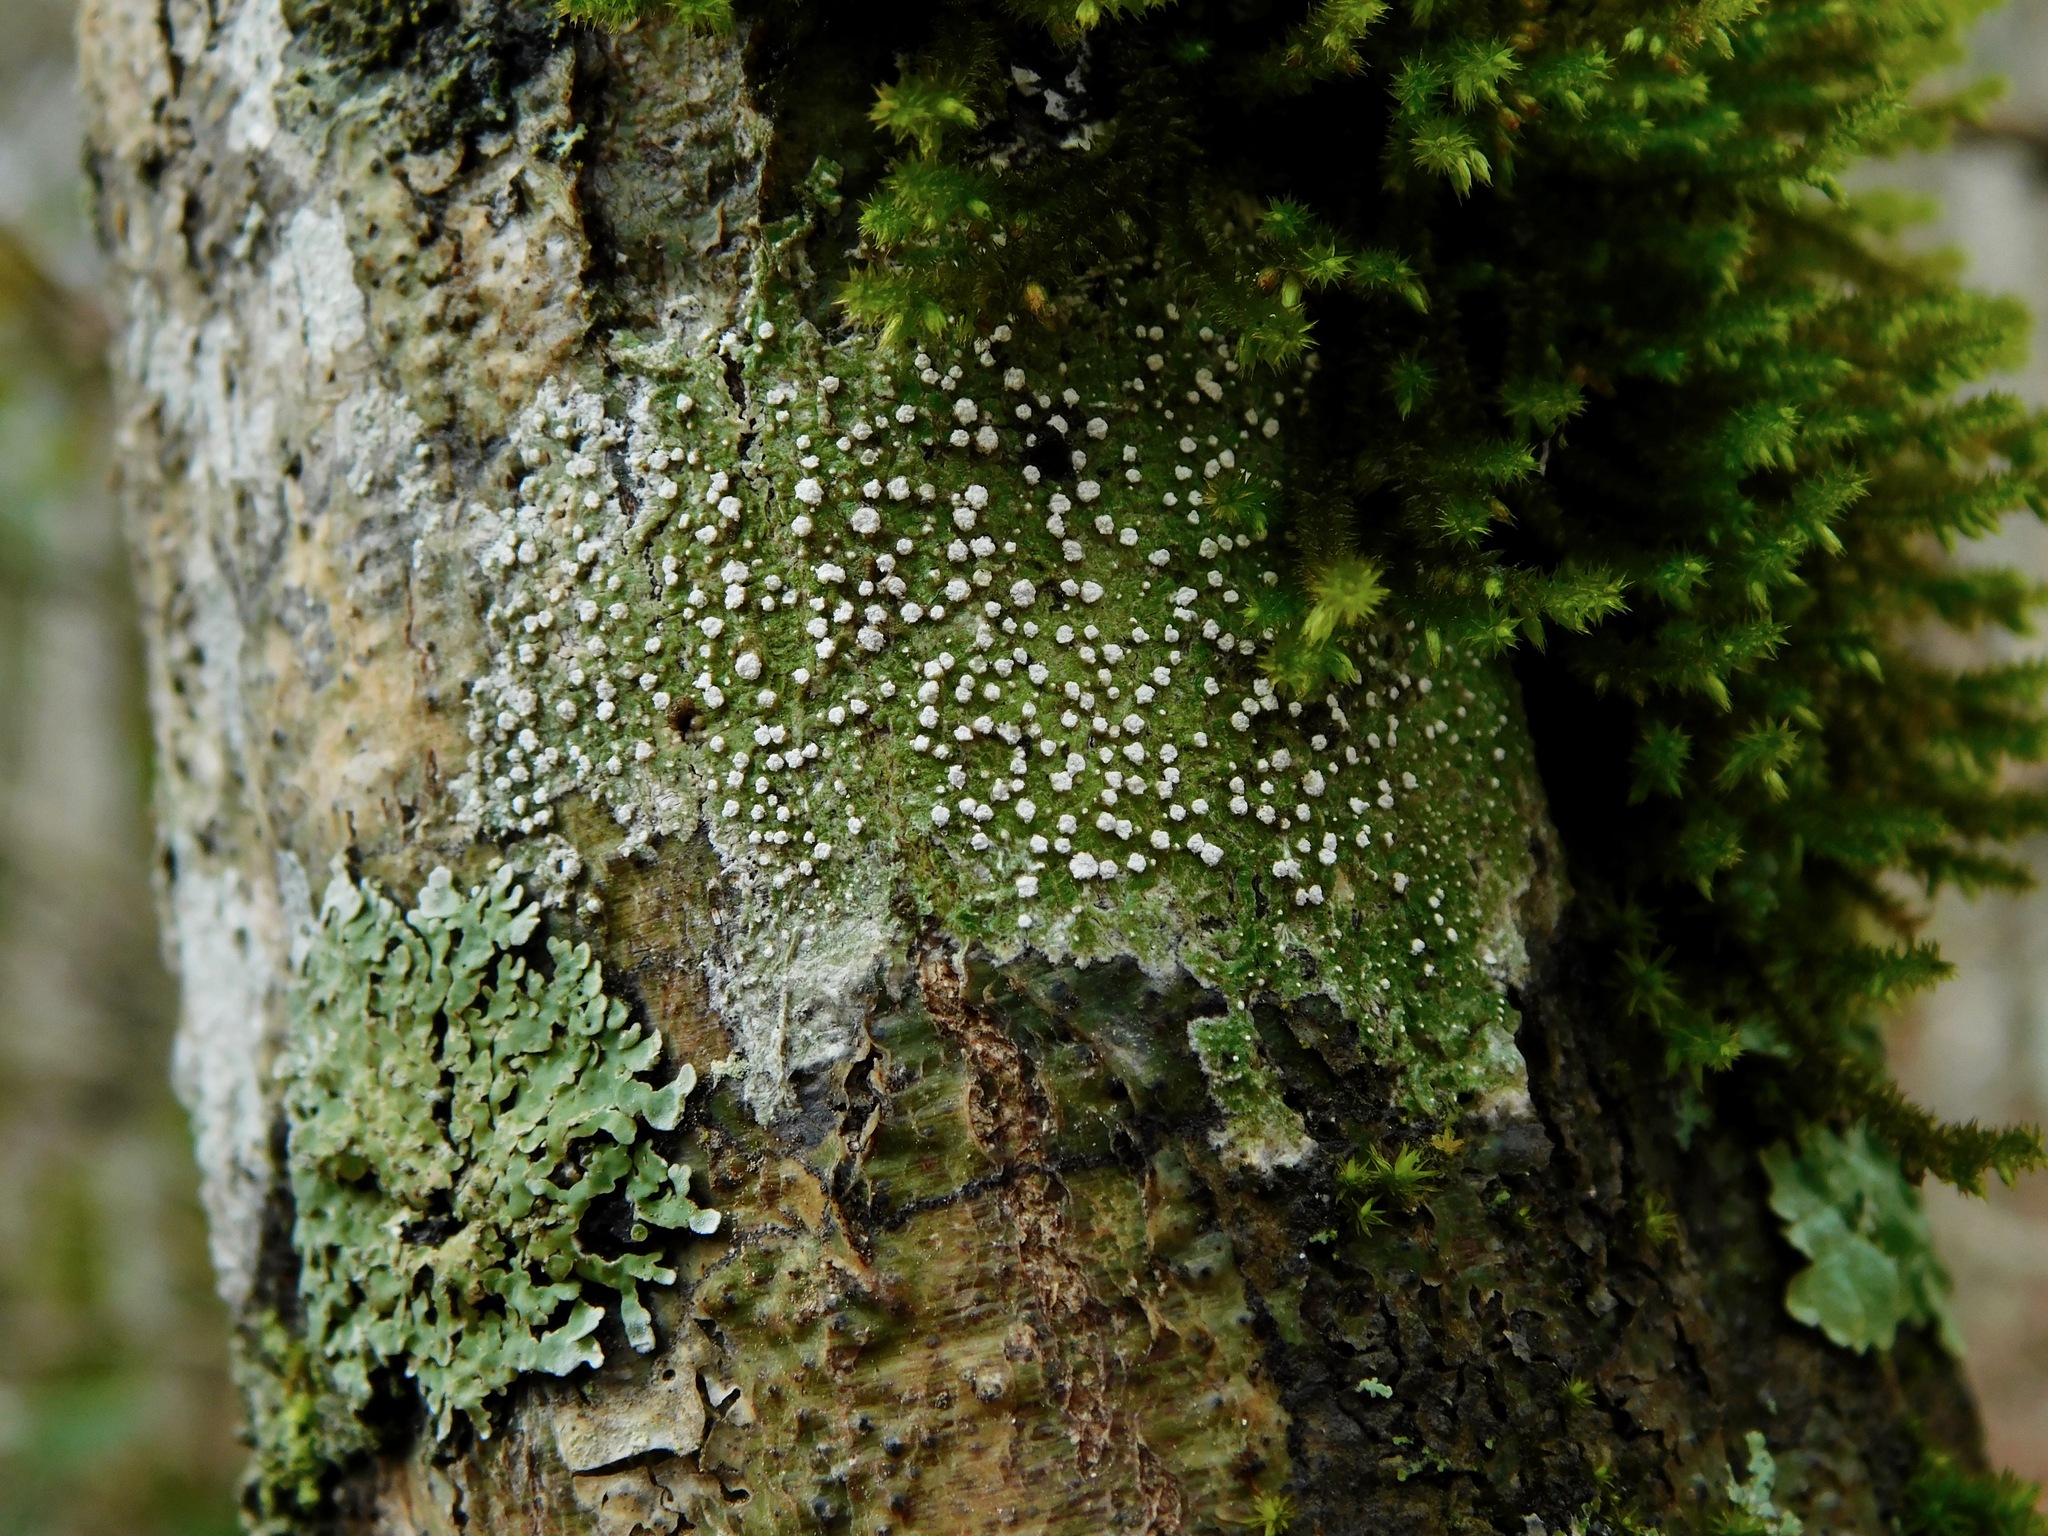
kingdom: Fungi
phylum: Ascomycota
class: Lecanoromycetes
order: Pertusariales
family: Pertusariaceae
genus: Lepra
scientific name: Lepra amara
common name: Bitter wart lichen
